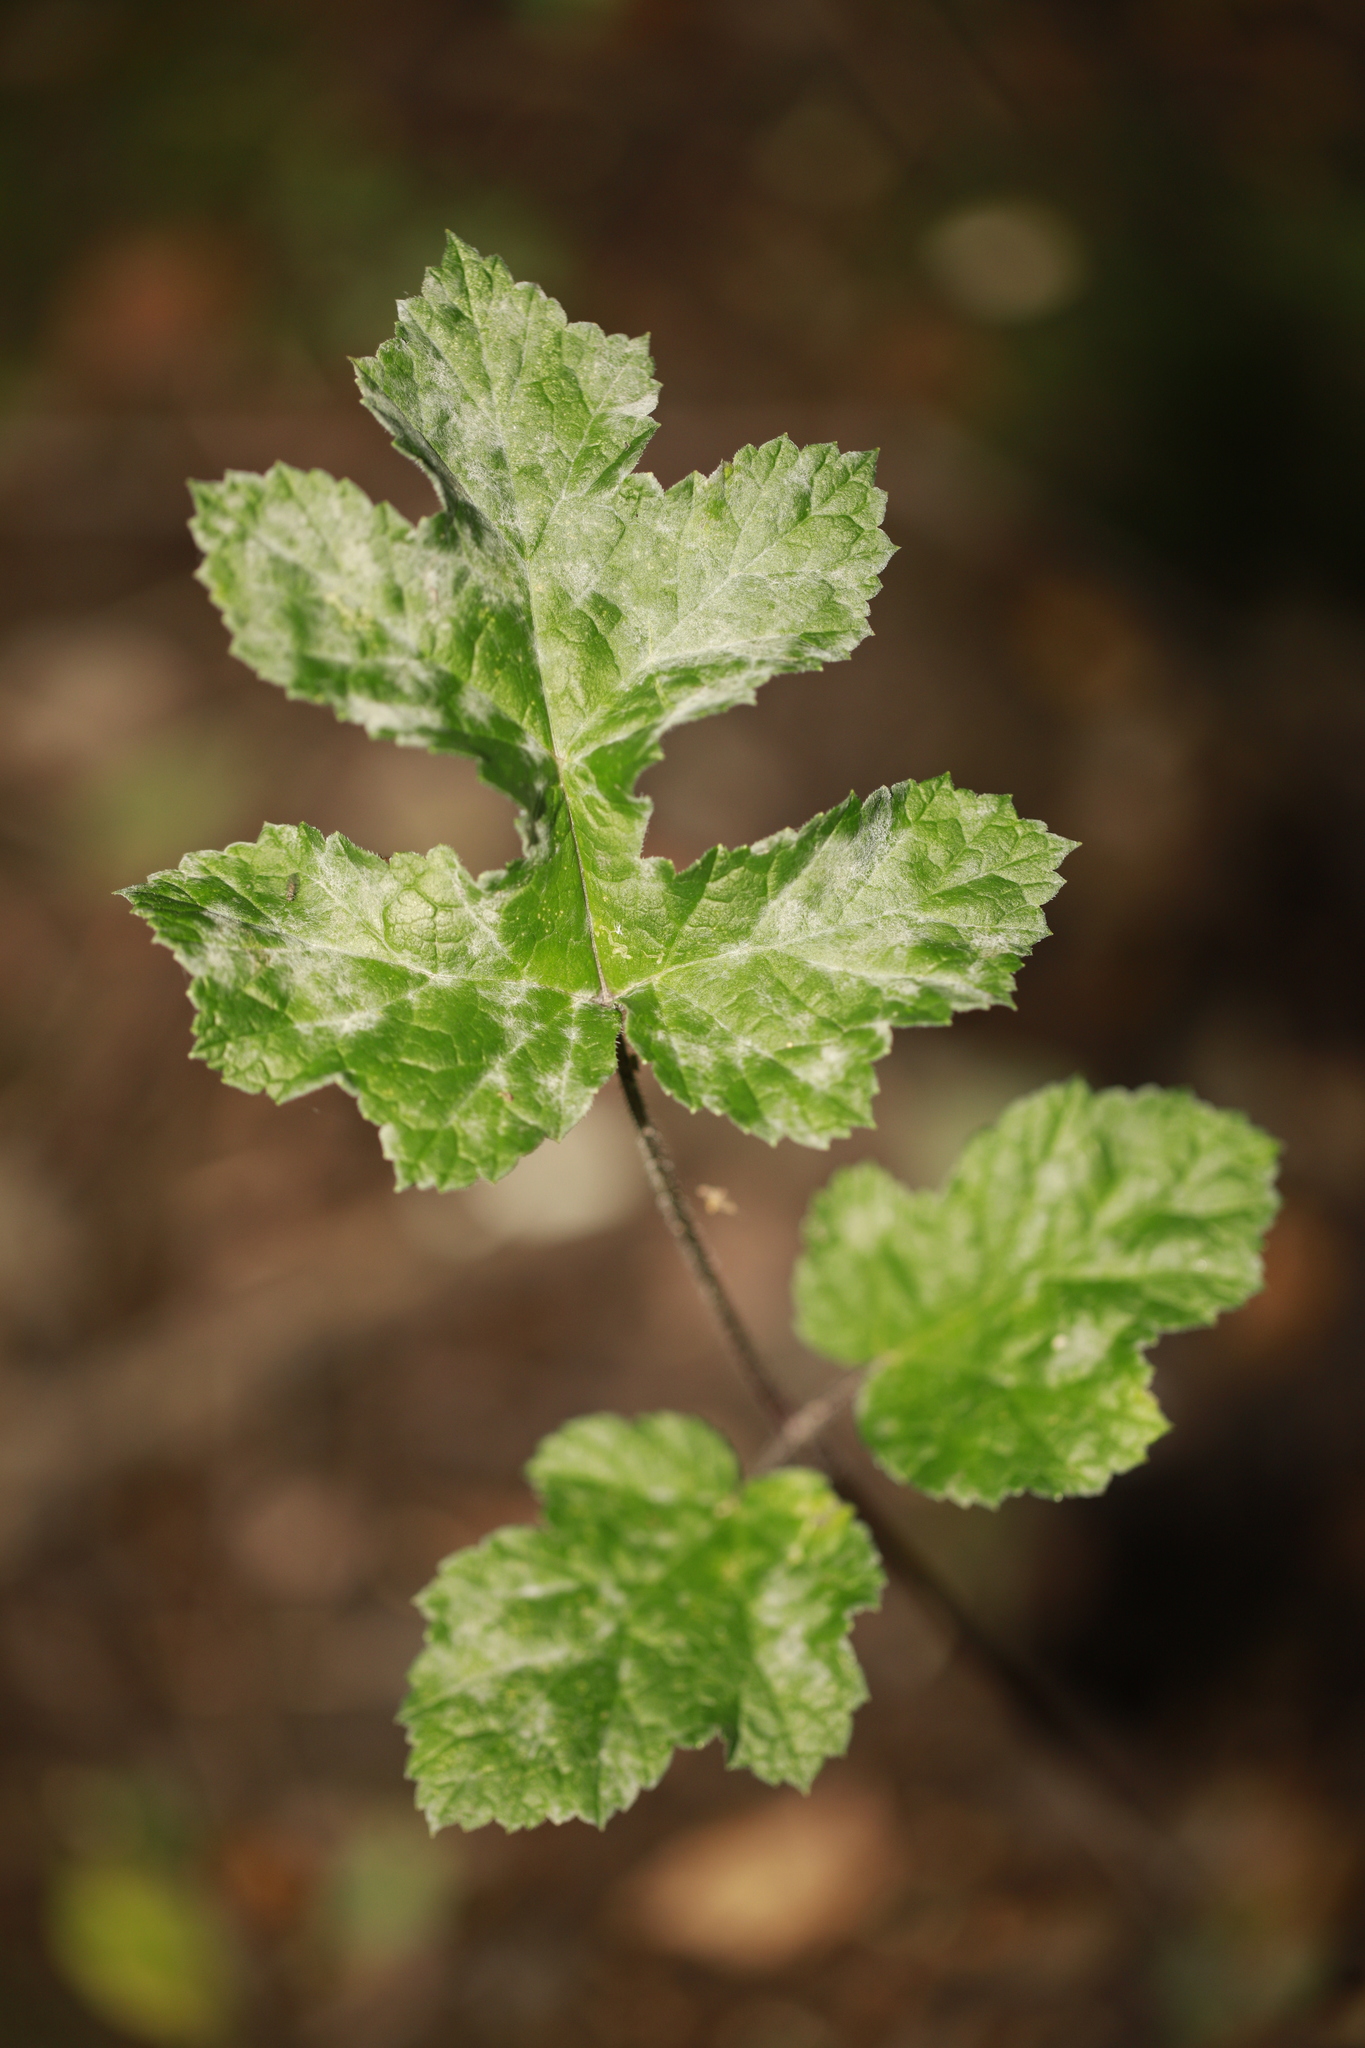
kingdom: Fungi
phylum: Ascomycota
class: Leotiomycetes
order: Helotiales
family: Erysiphaceae
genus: Erysiphe
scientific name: Erysiphe heraclei
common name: Umbellifer mildew
